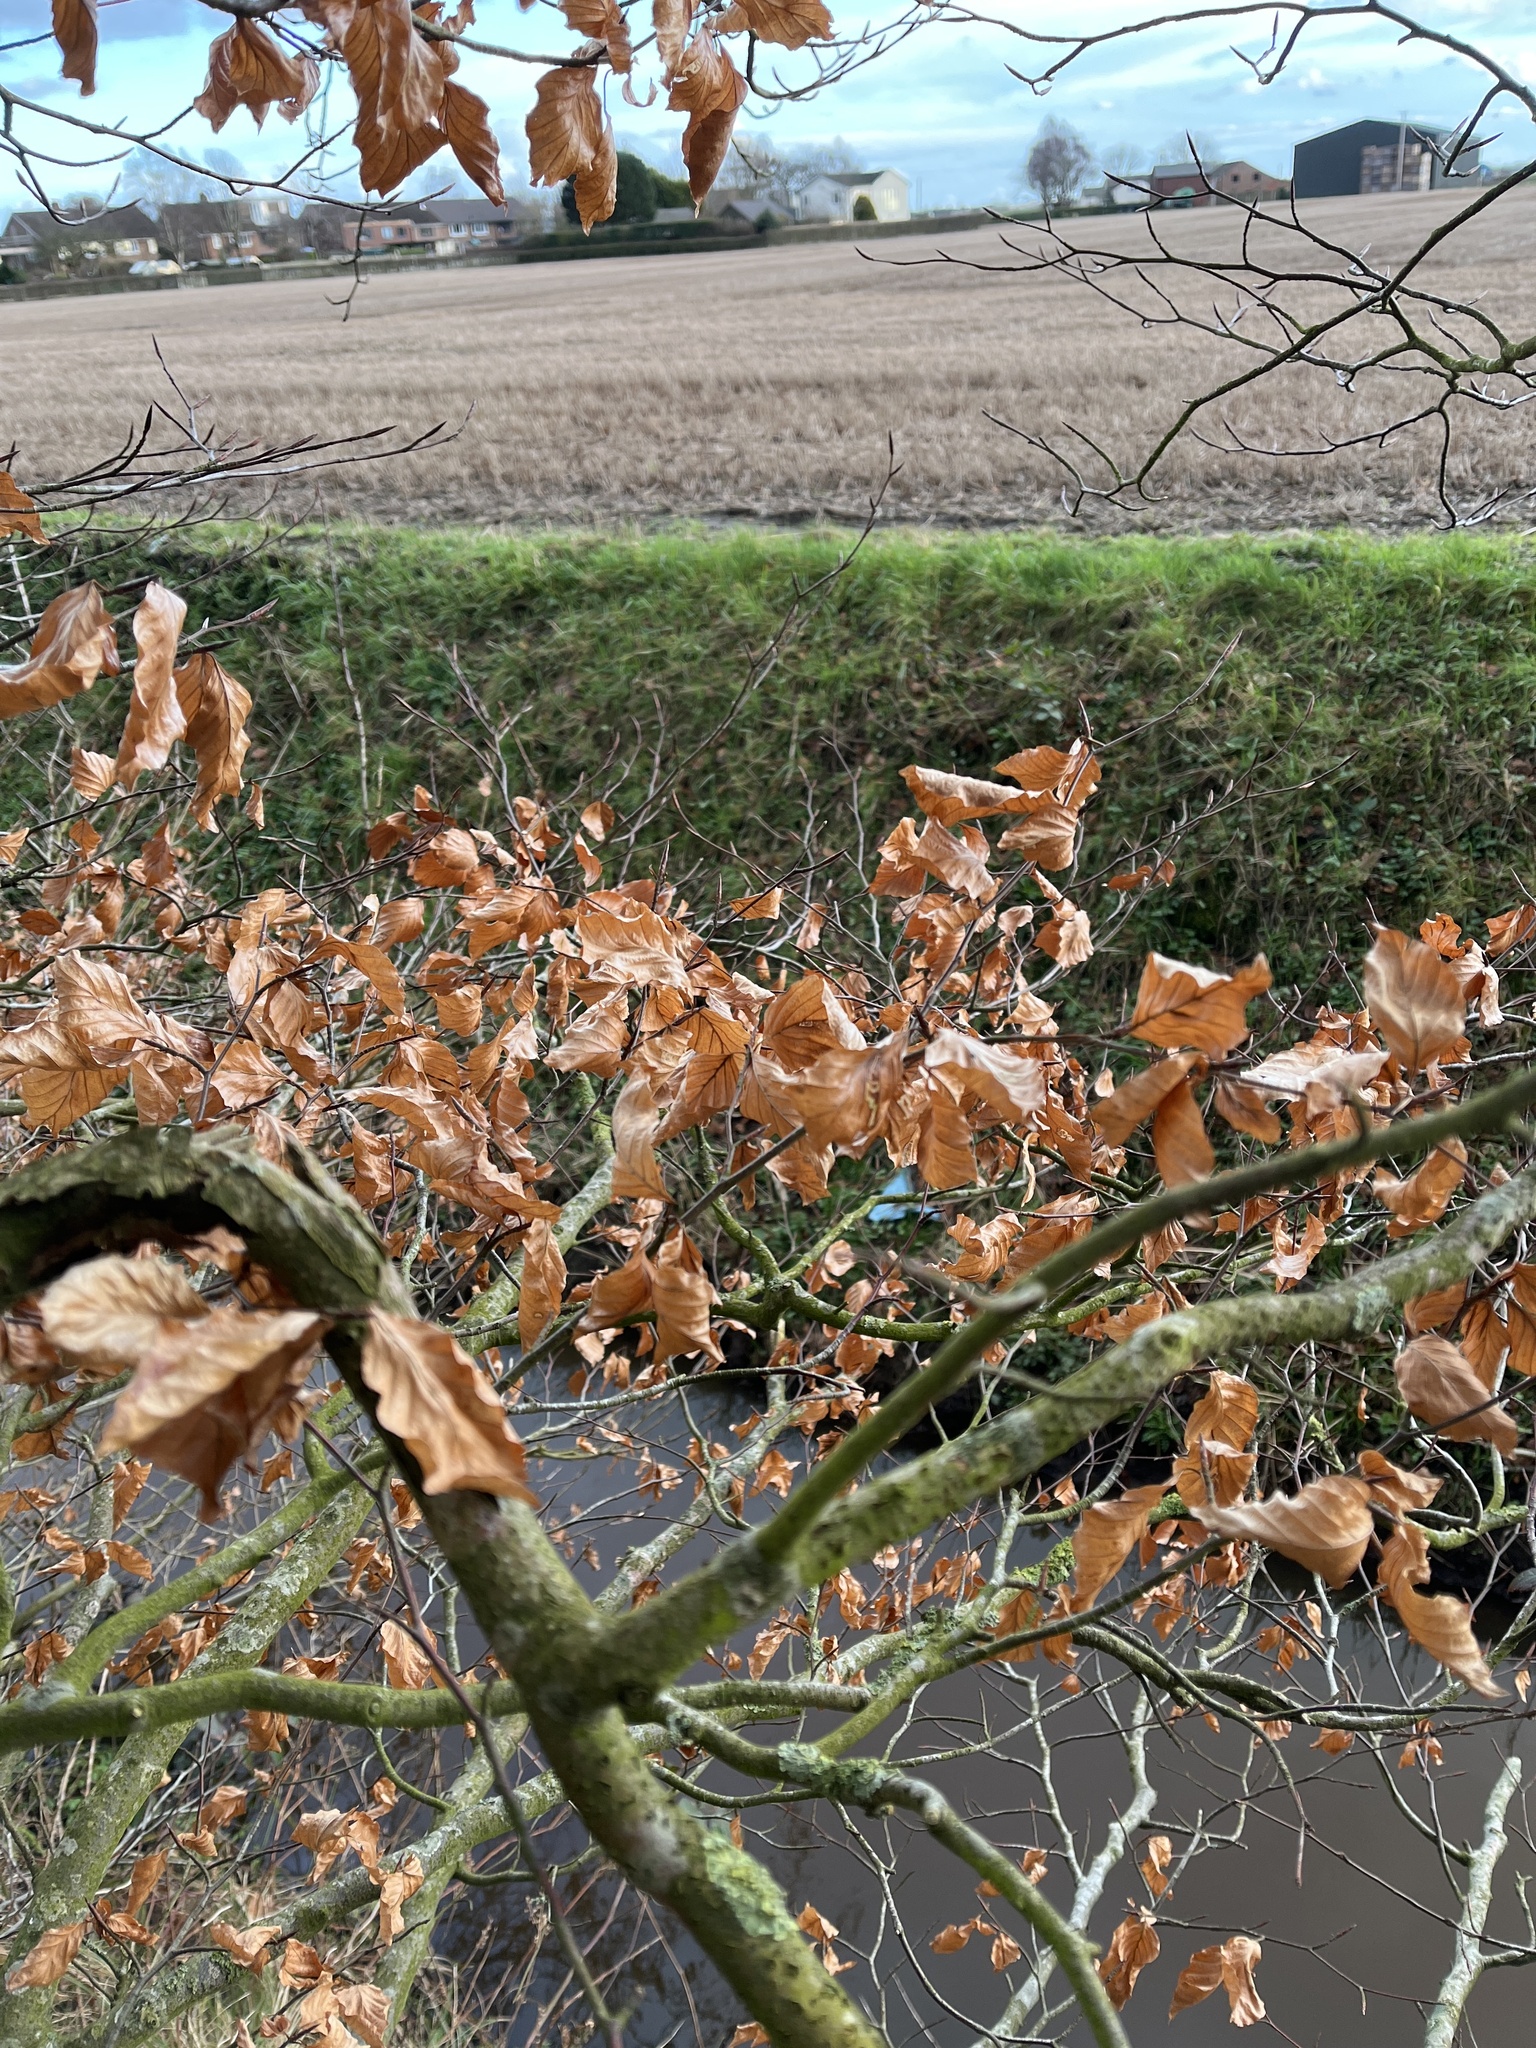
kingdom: Plantae
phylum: Tracheophyta
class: Magnoliopsida
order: Fagales
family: Fagaceae
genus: Fagus
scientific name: Fagus sylvatica
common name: Beech
